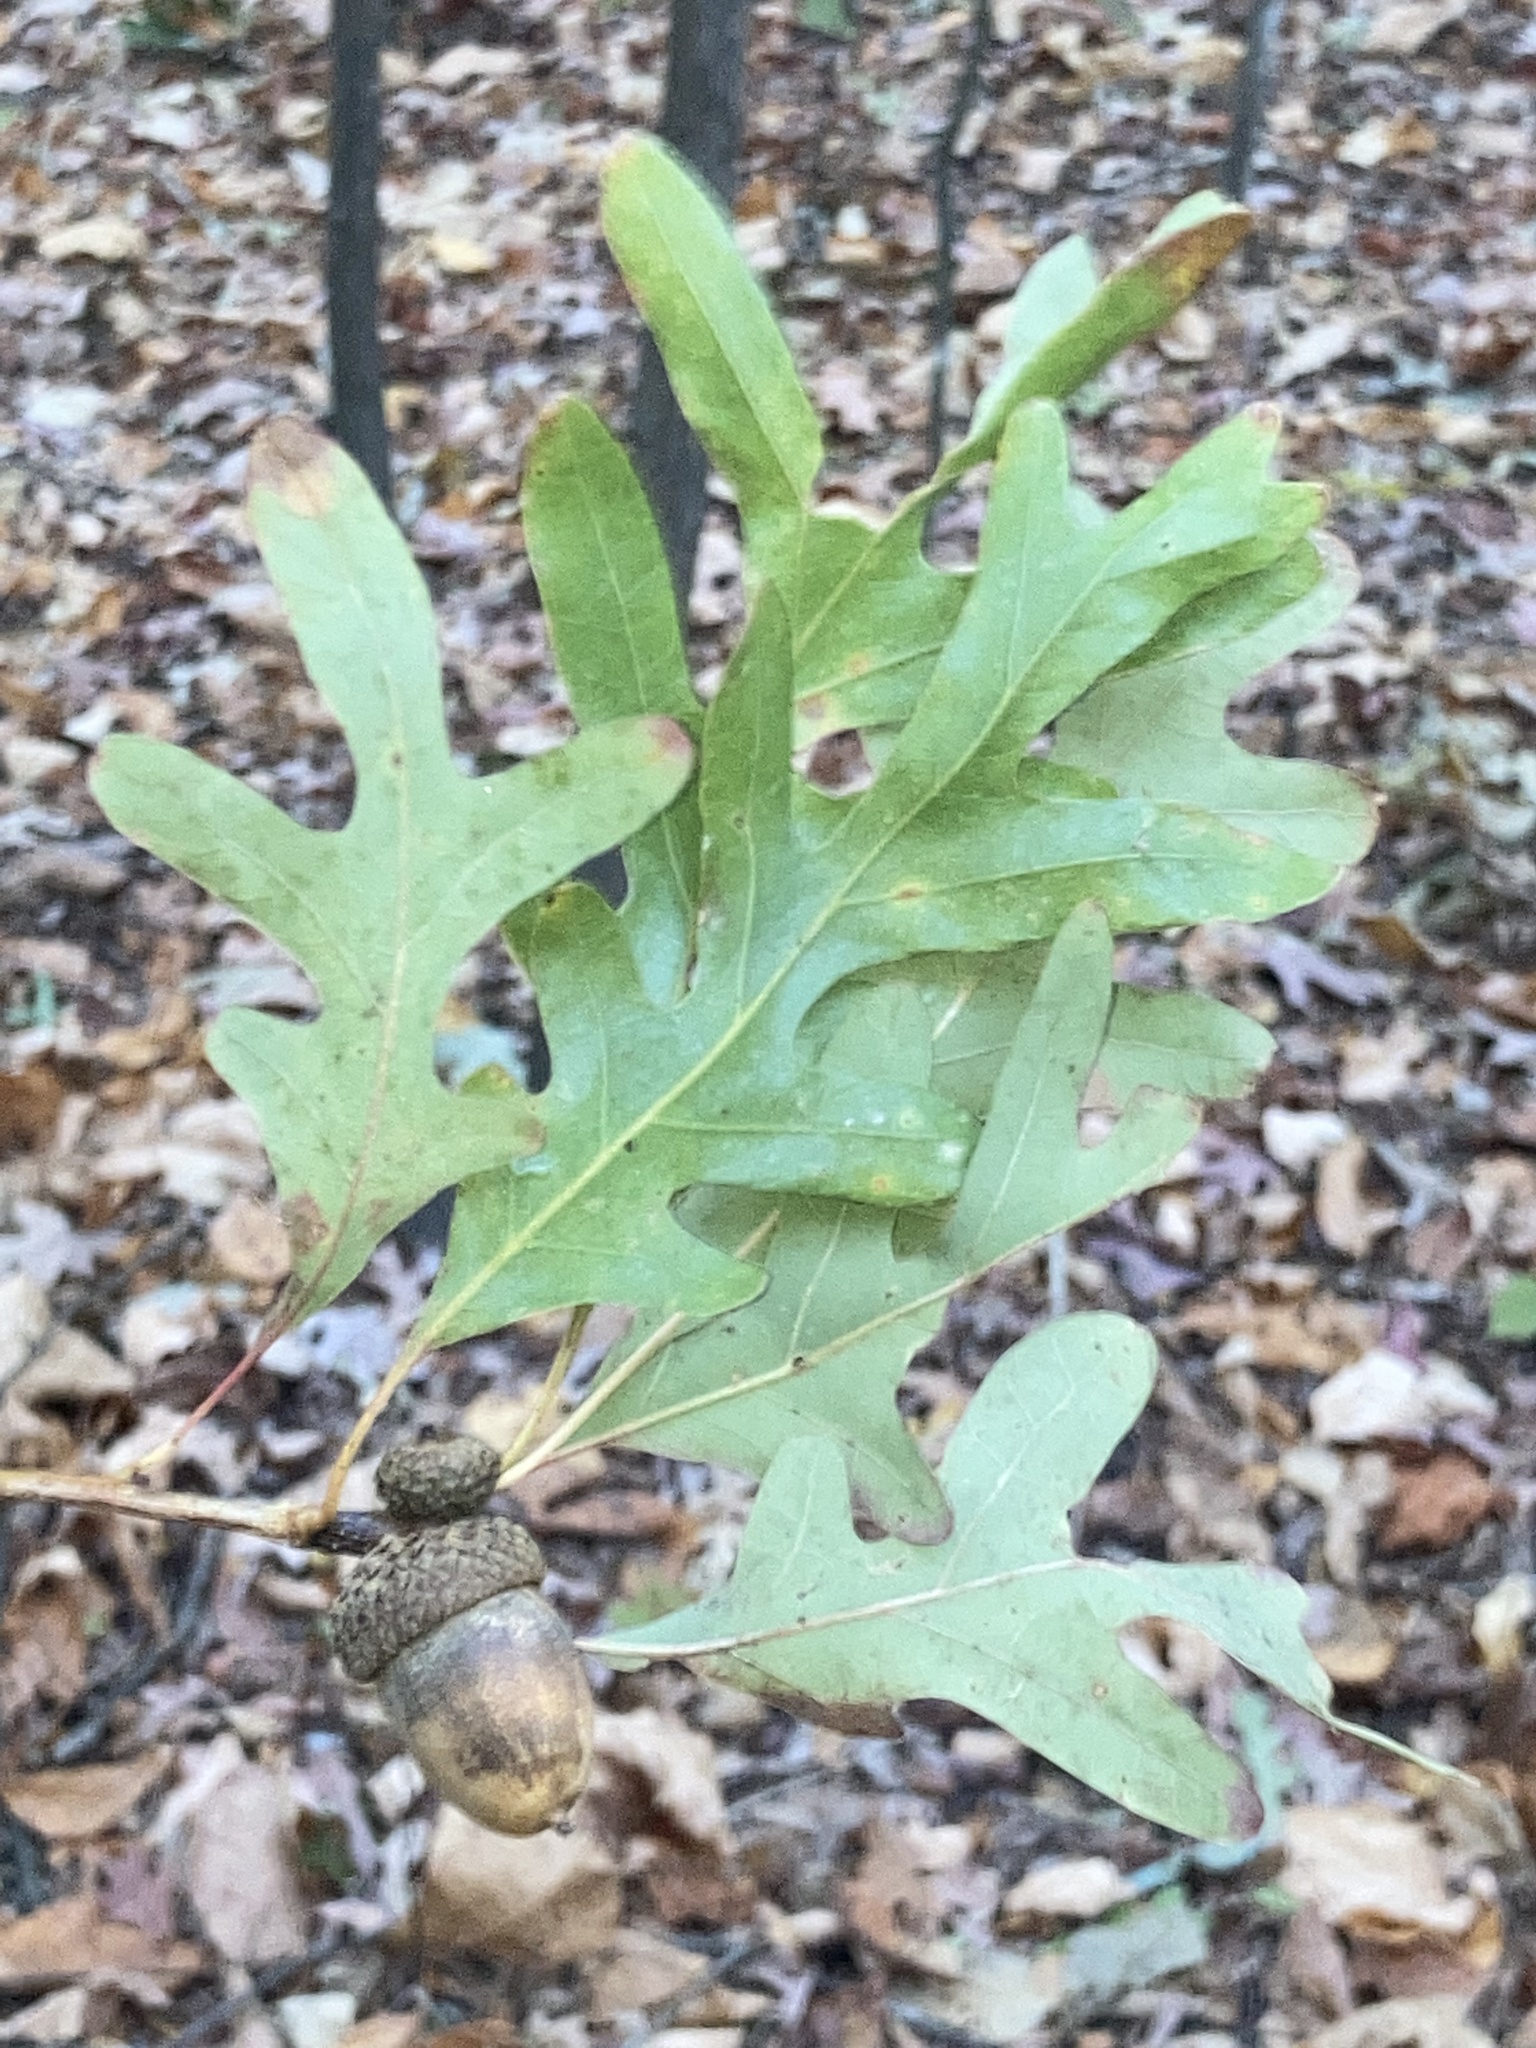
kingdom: Plantae
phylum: Tracheophyta
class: Magnoliopsida
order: Fagales
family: Fagaceae
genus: Quercus
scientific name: Quercus alba
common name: White oak
